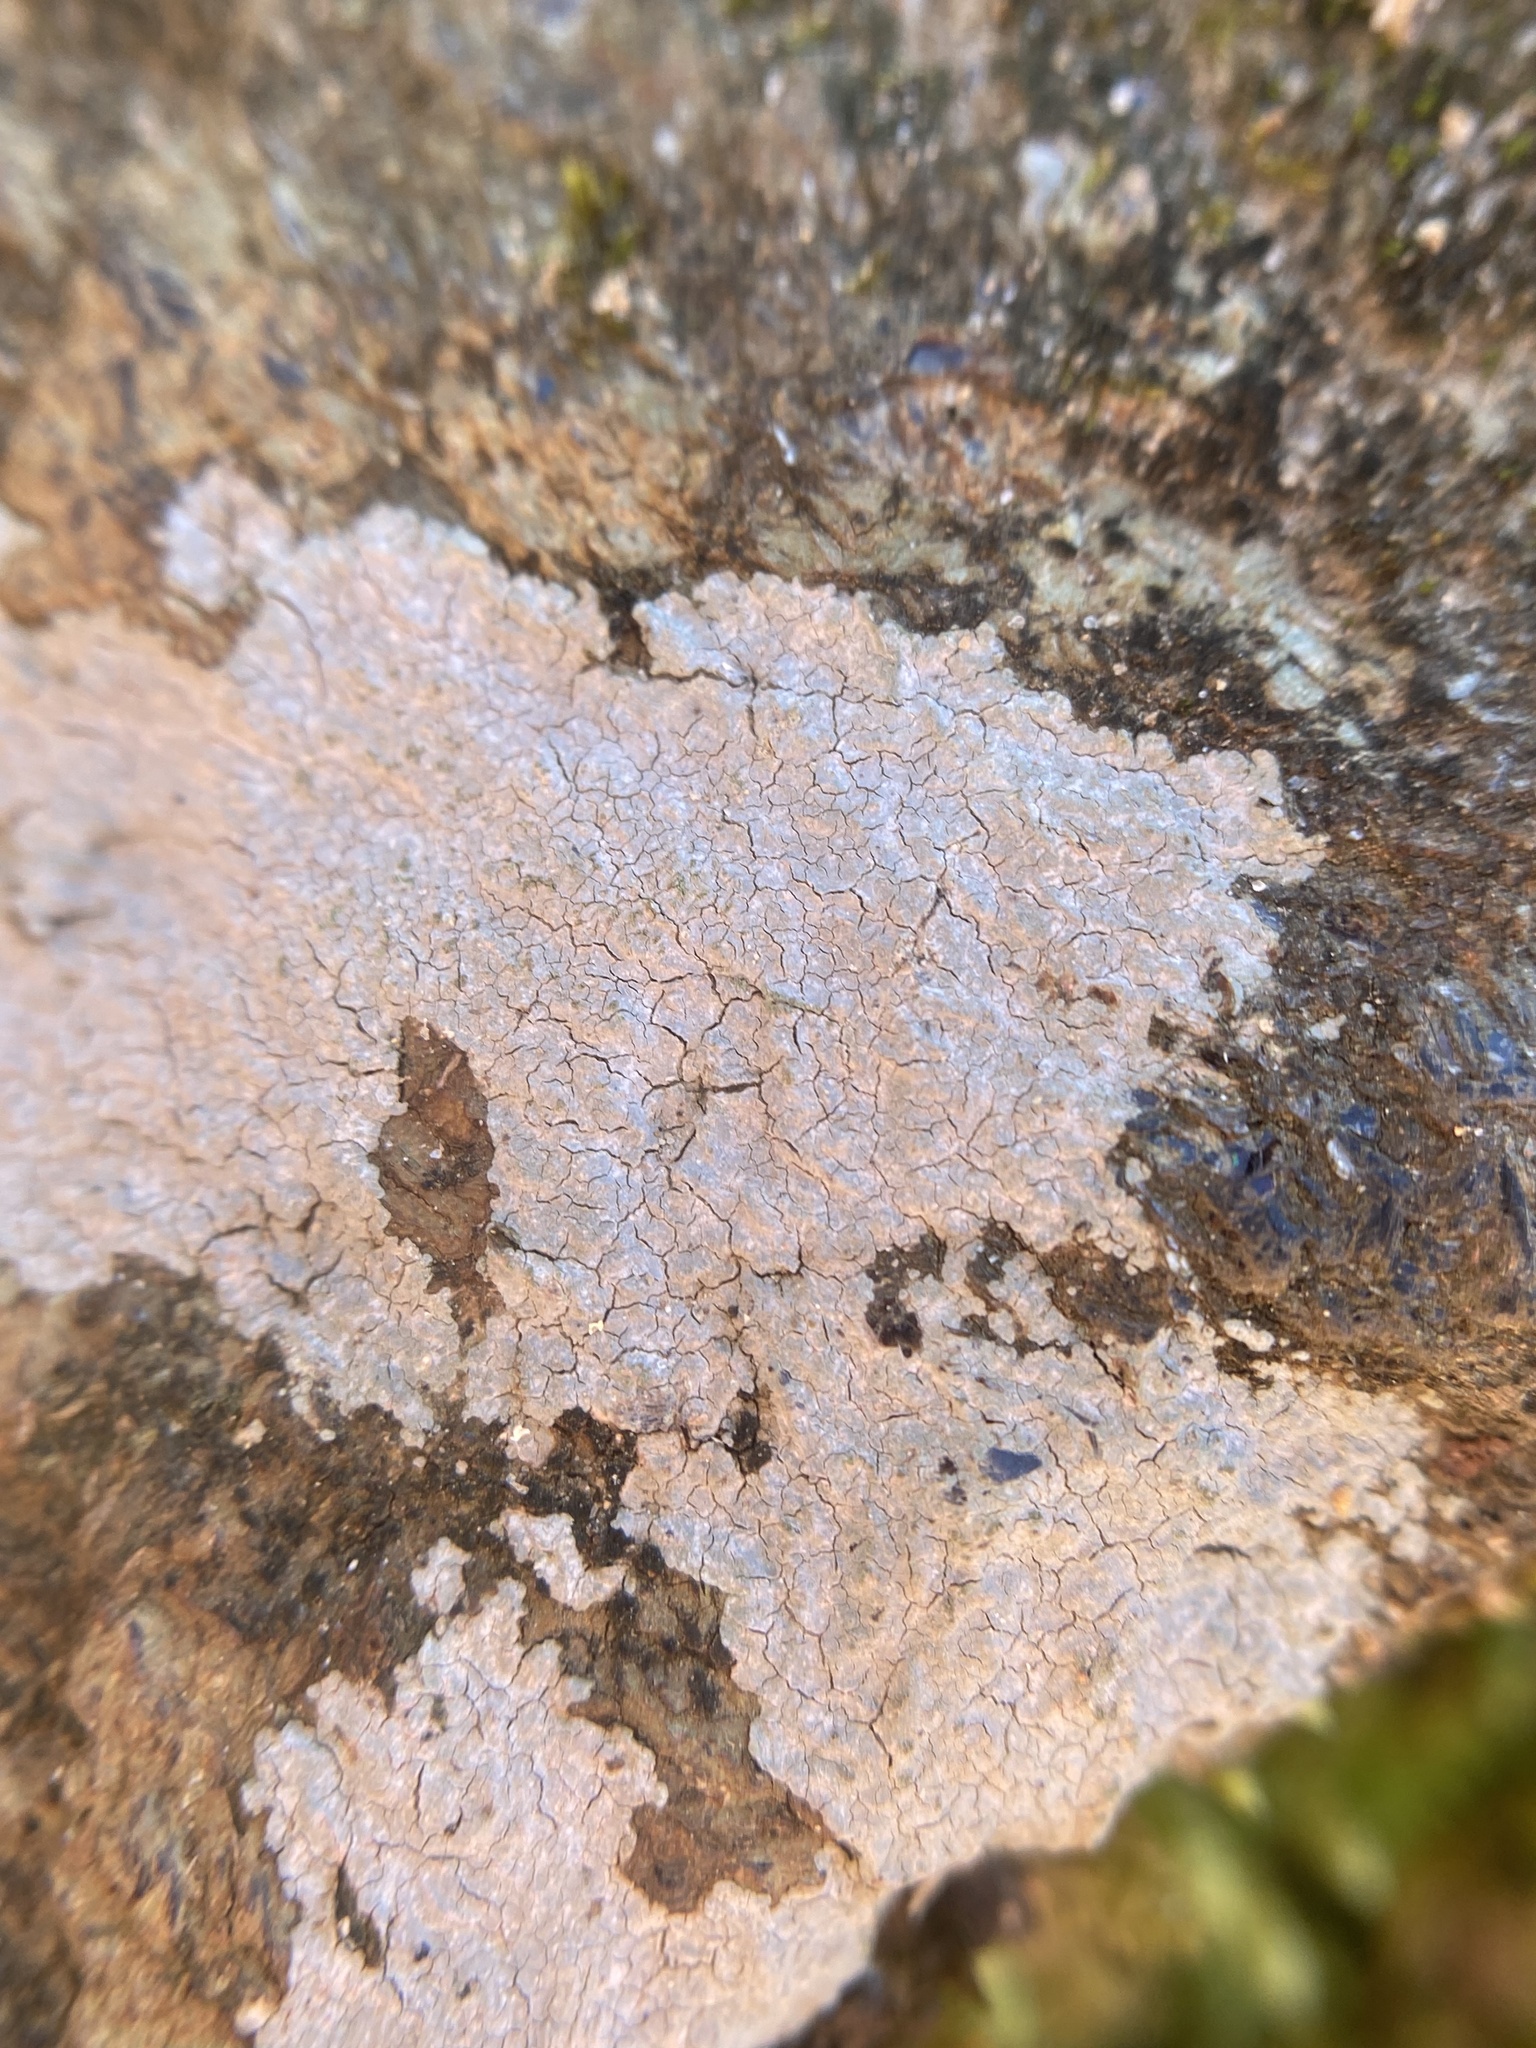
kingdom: Fungi
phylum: Ascomycota
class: Lecanoromycetes
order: Ostropales
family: Phlyctidaceae
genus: Phlyctis
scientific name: Phlyctis petraea
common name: Eggshell rock blaze
